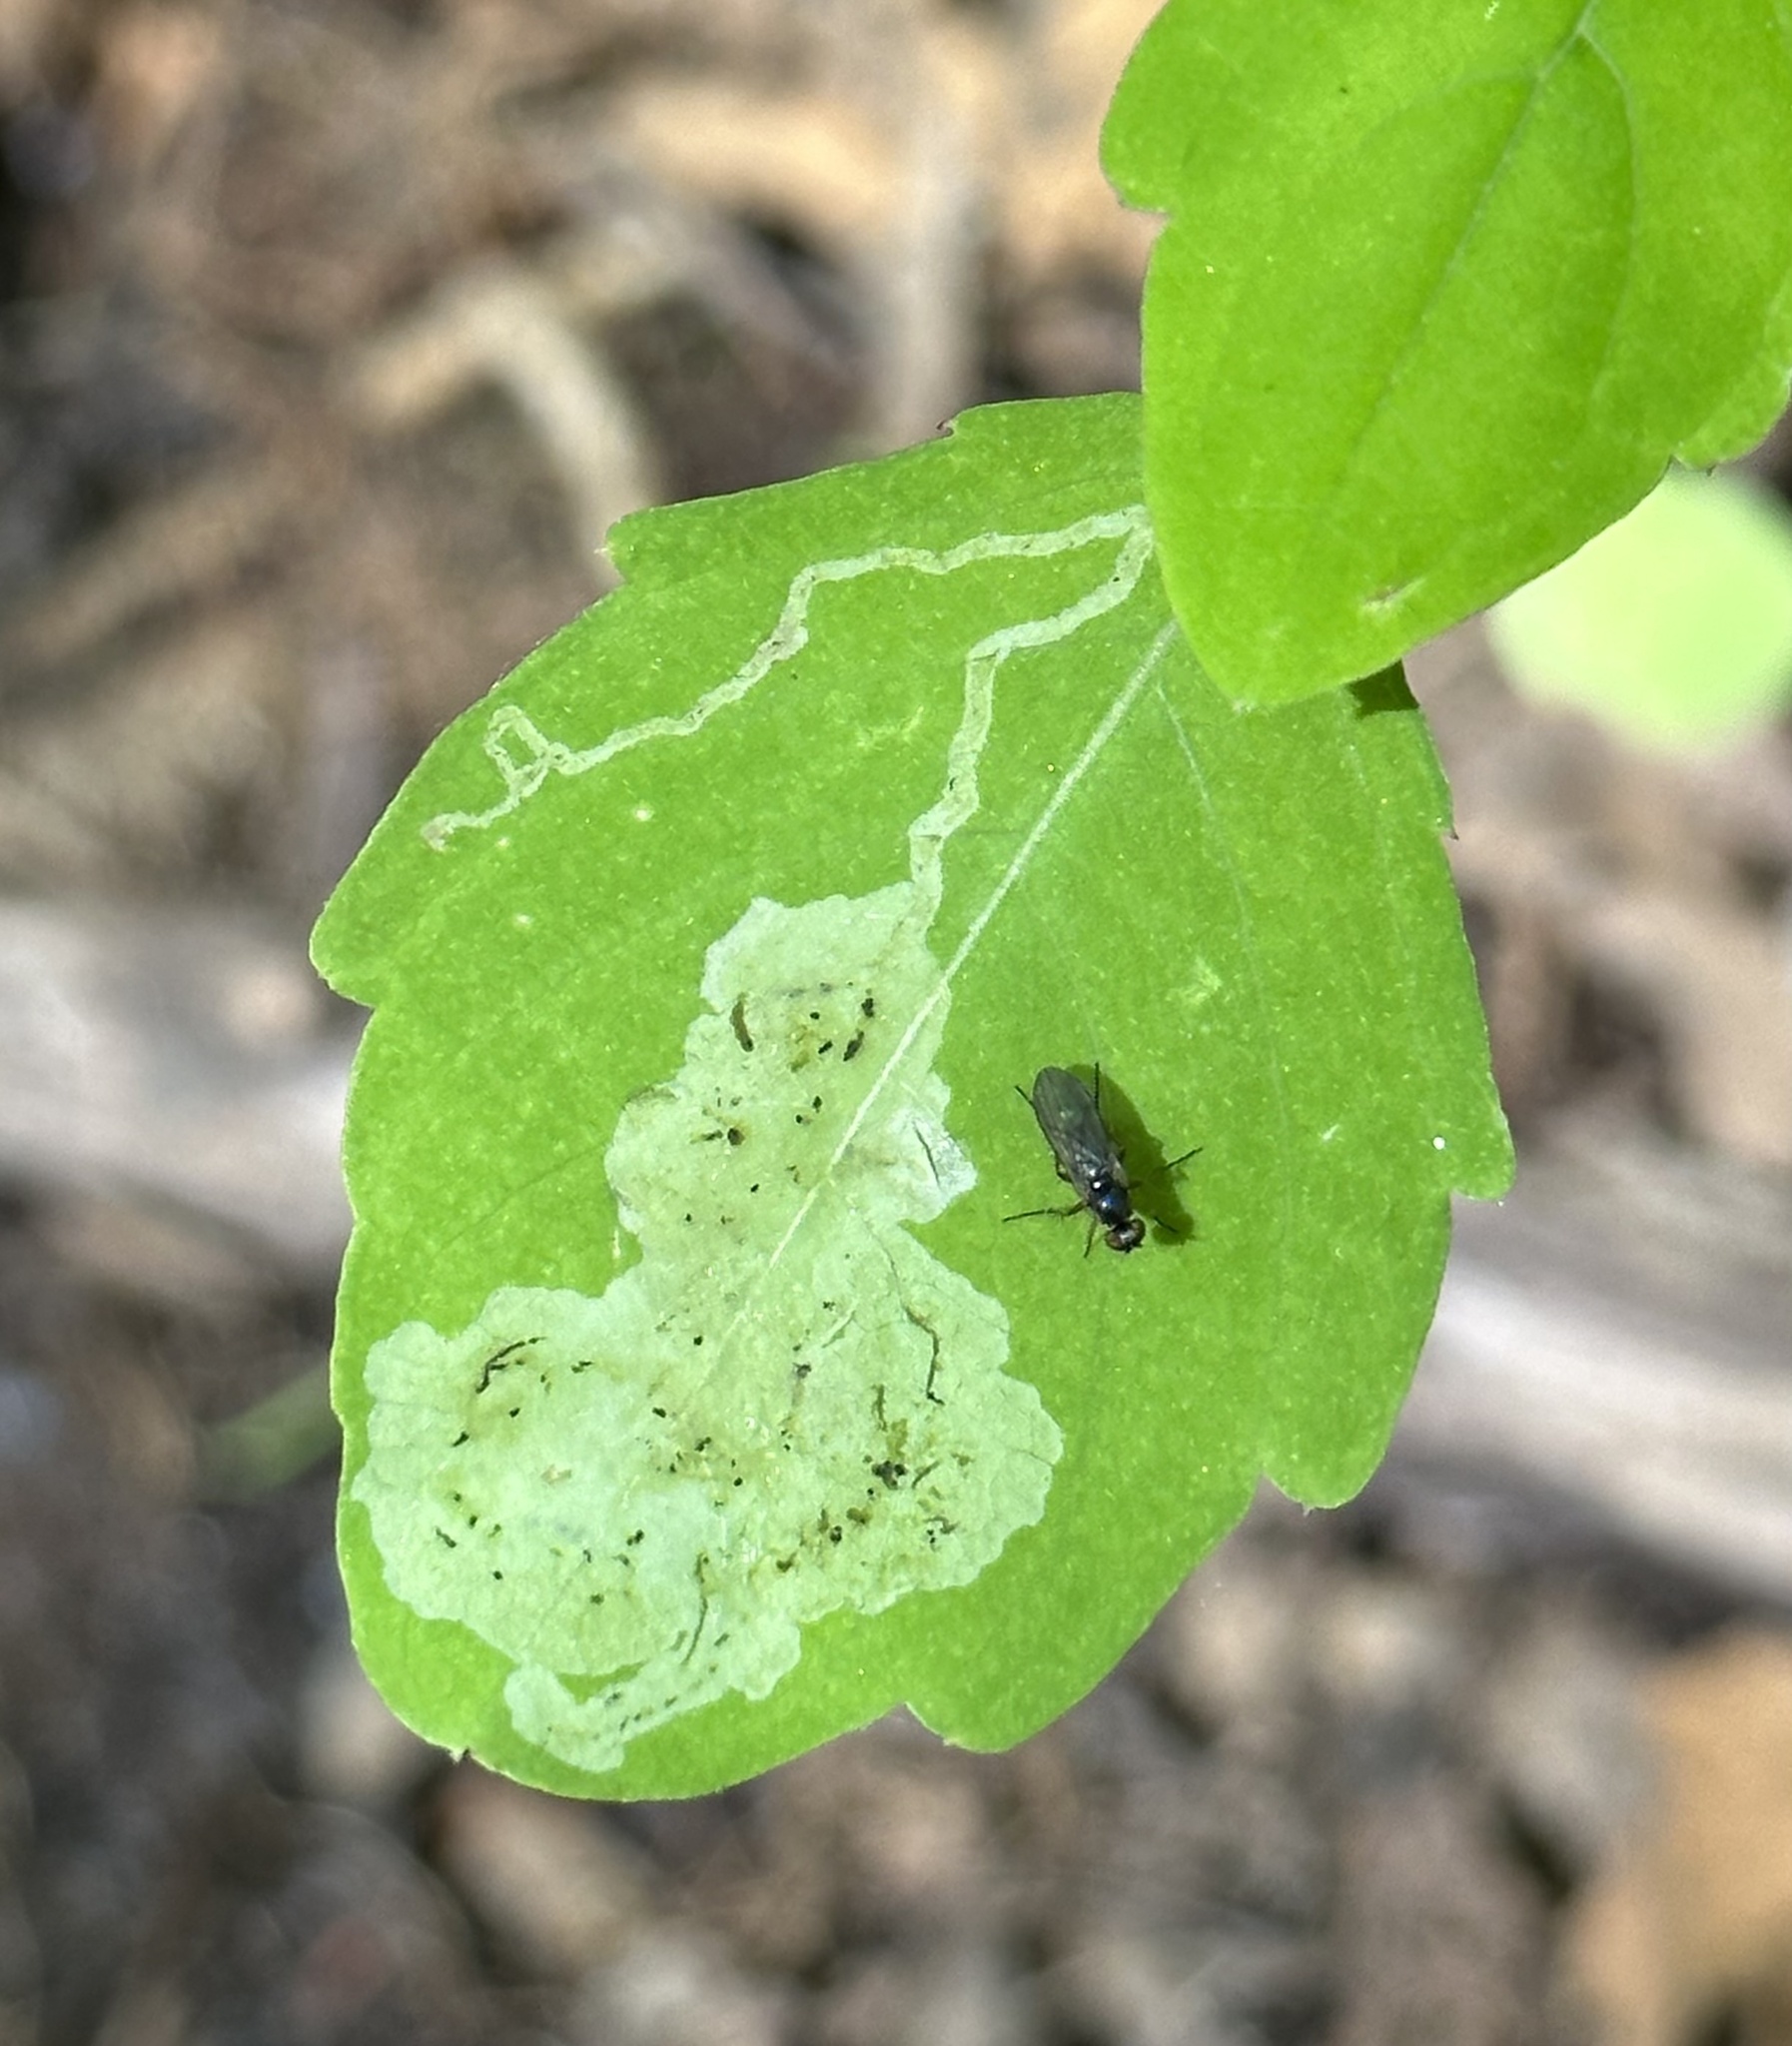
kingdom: Animalia
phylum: Arthropoda
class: Insecta
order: Diptera
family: Agromyzidae
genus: Phytoliriomyza
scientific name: Phytoliriomyza melampyga
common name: Jewelweed leaf-miner fly
